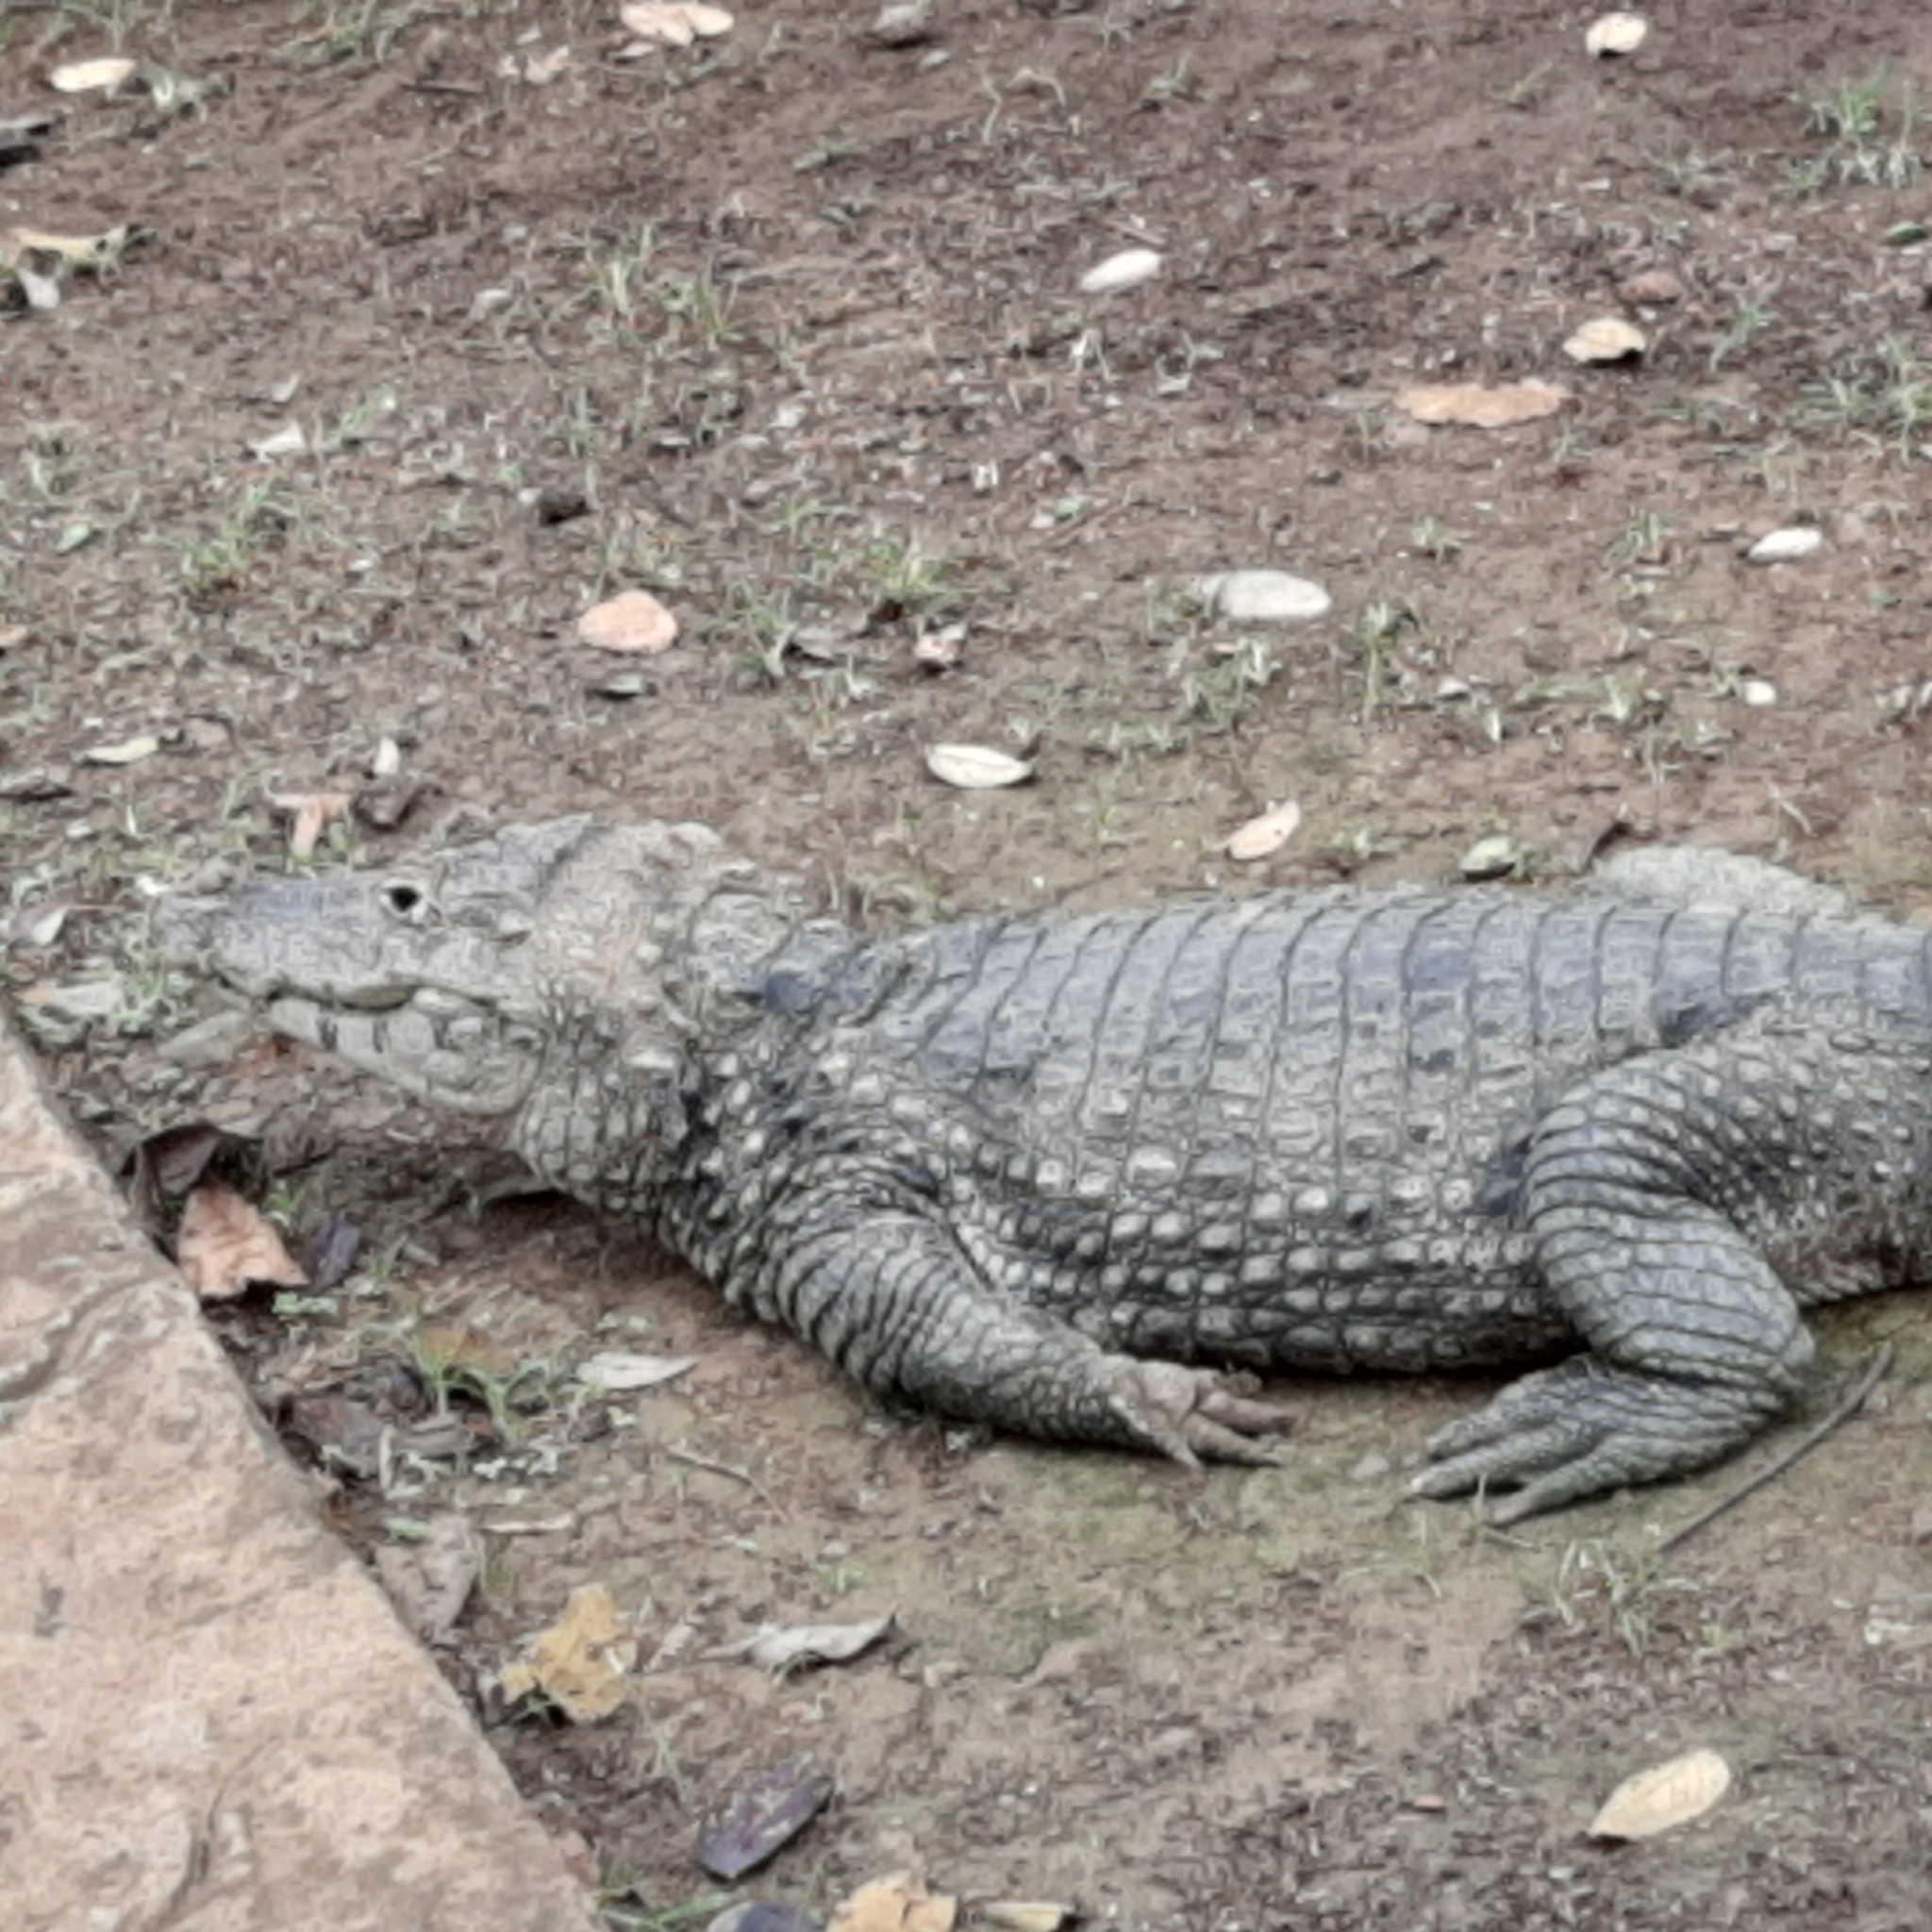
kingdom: Animalia
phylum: Chordata
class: Crocodylia
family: Alligatoridae
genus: Caiman
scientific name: Caiman crocodilus
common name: Common caiman
